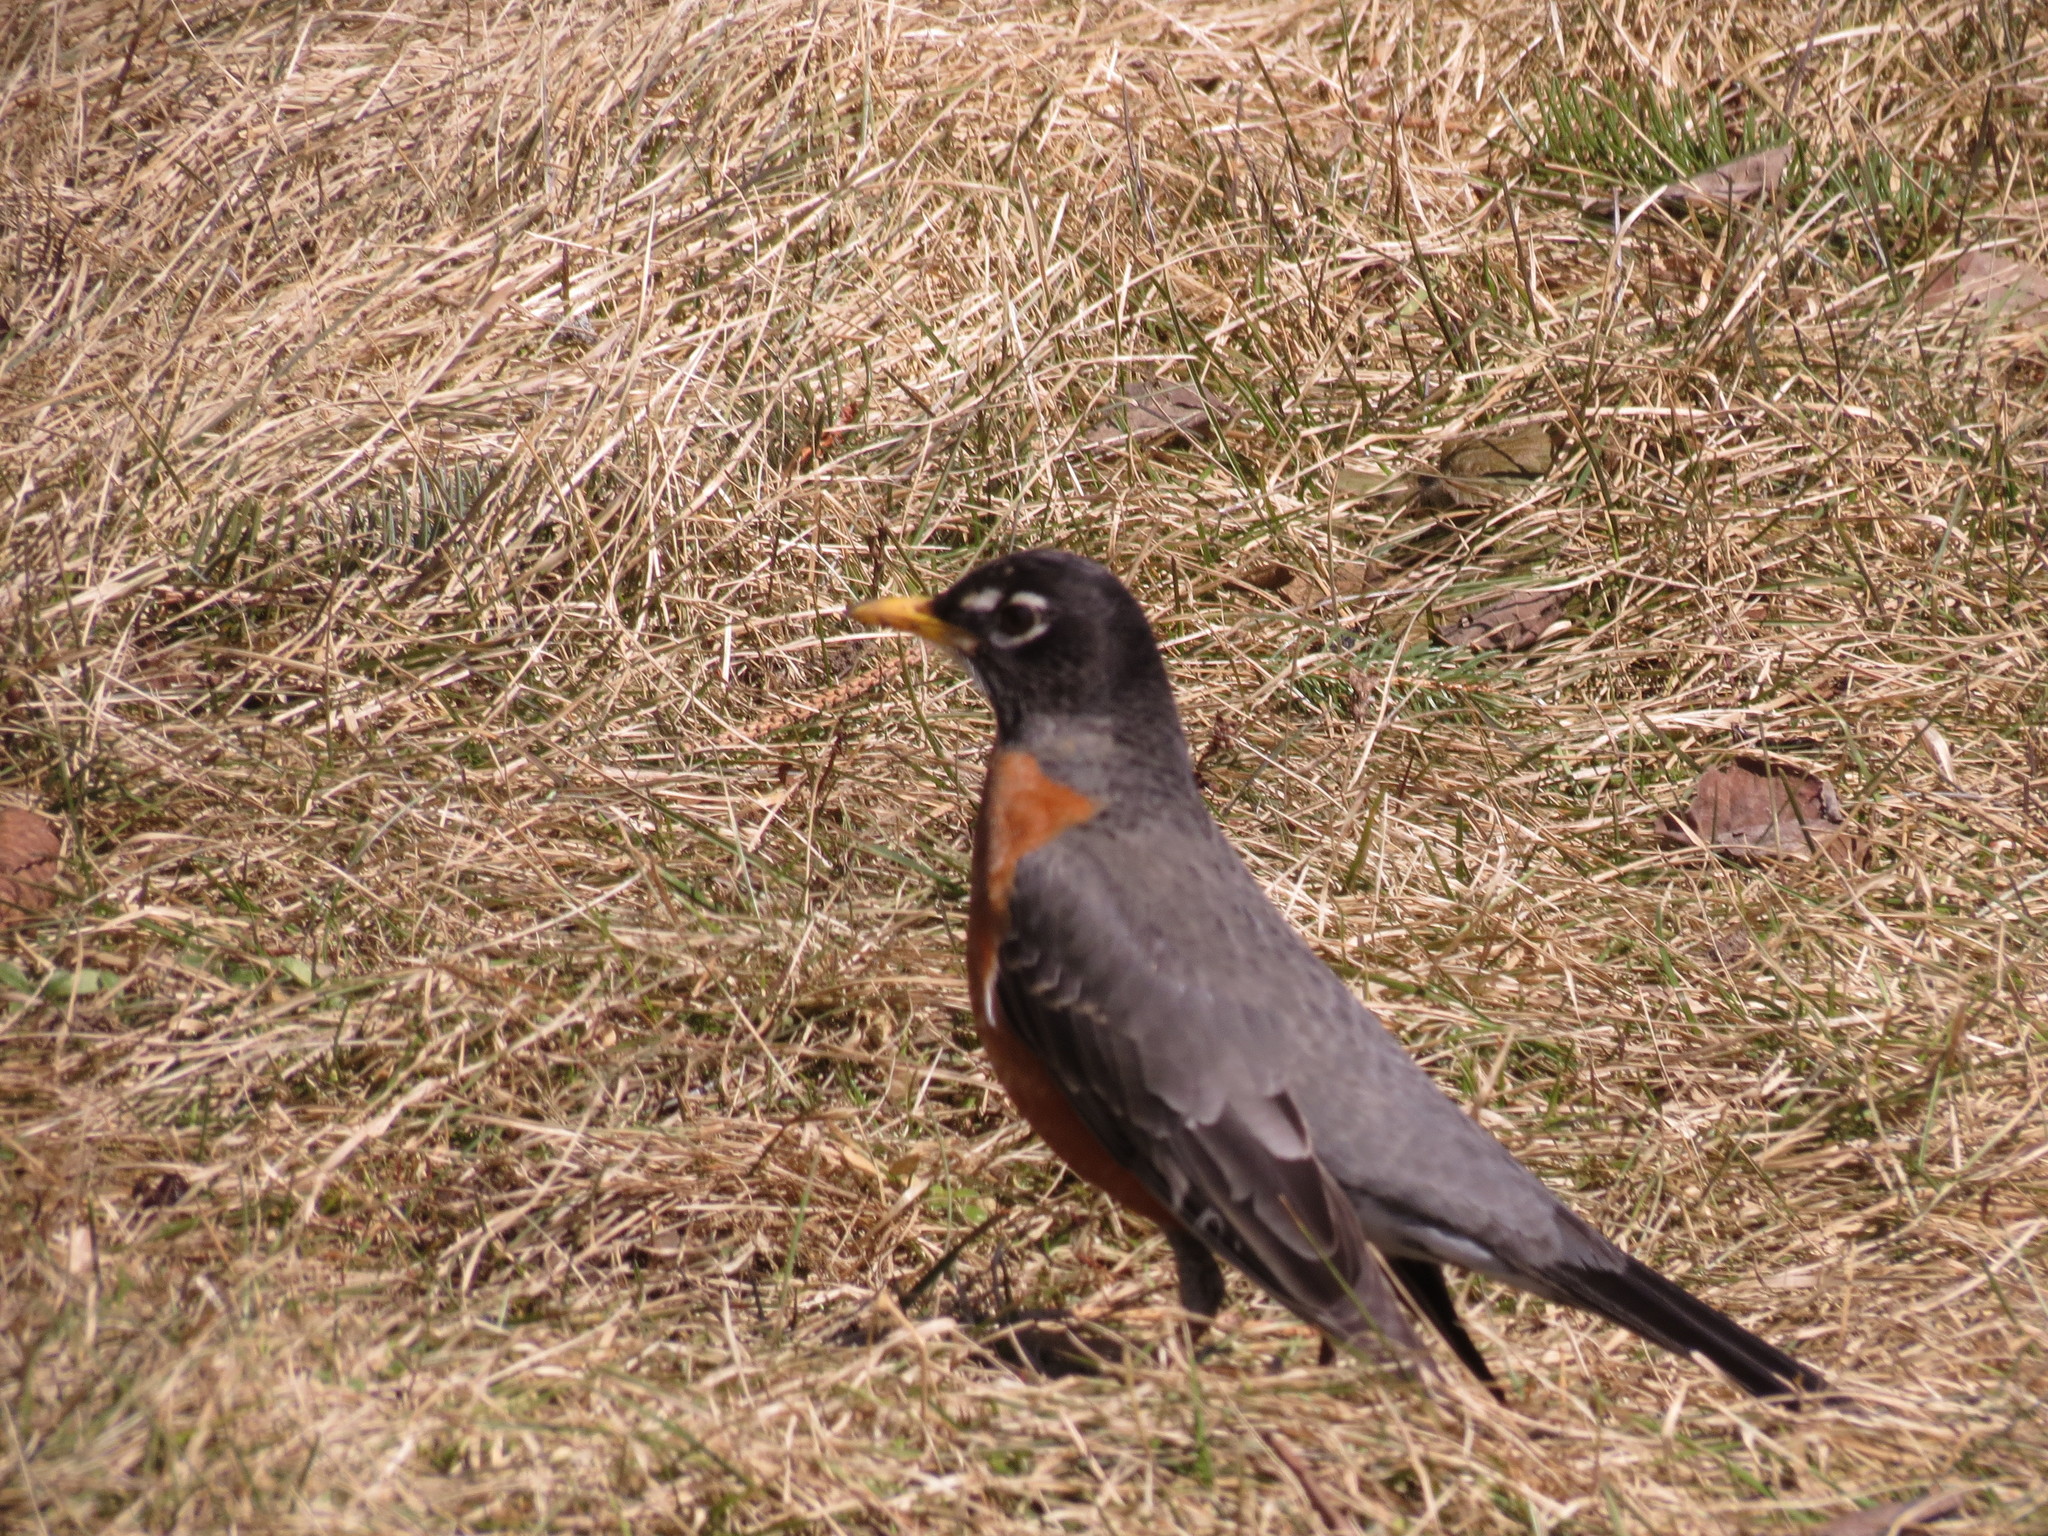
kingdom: Animalia
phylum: Chordata
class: Aves
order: Passeriformes
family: Turdidae
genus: Turdus
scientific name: Turdus migratorius
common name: American robin
